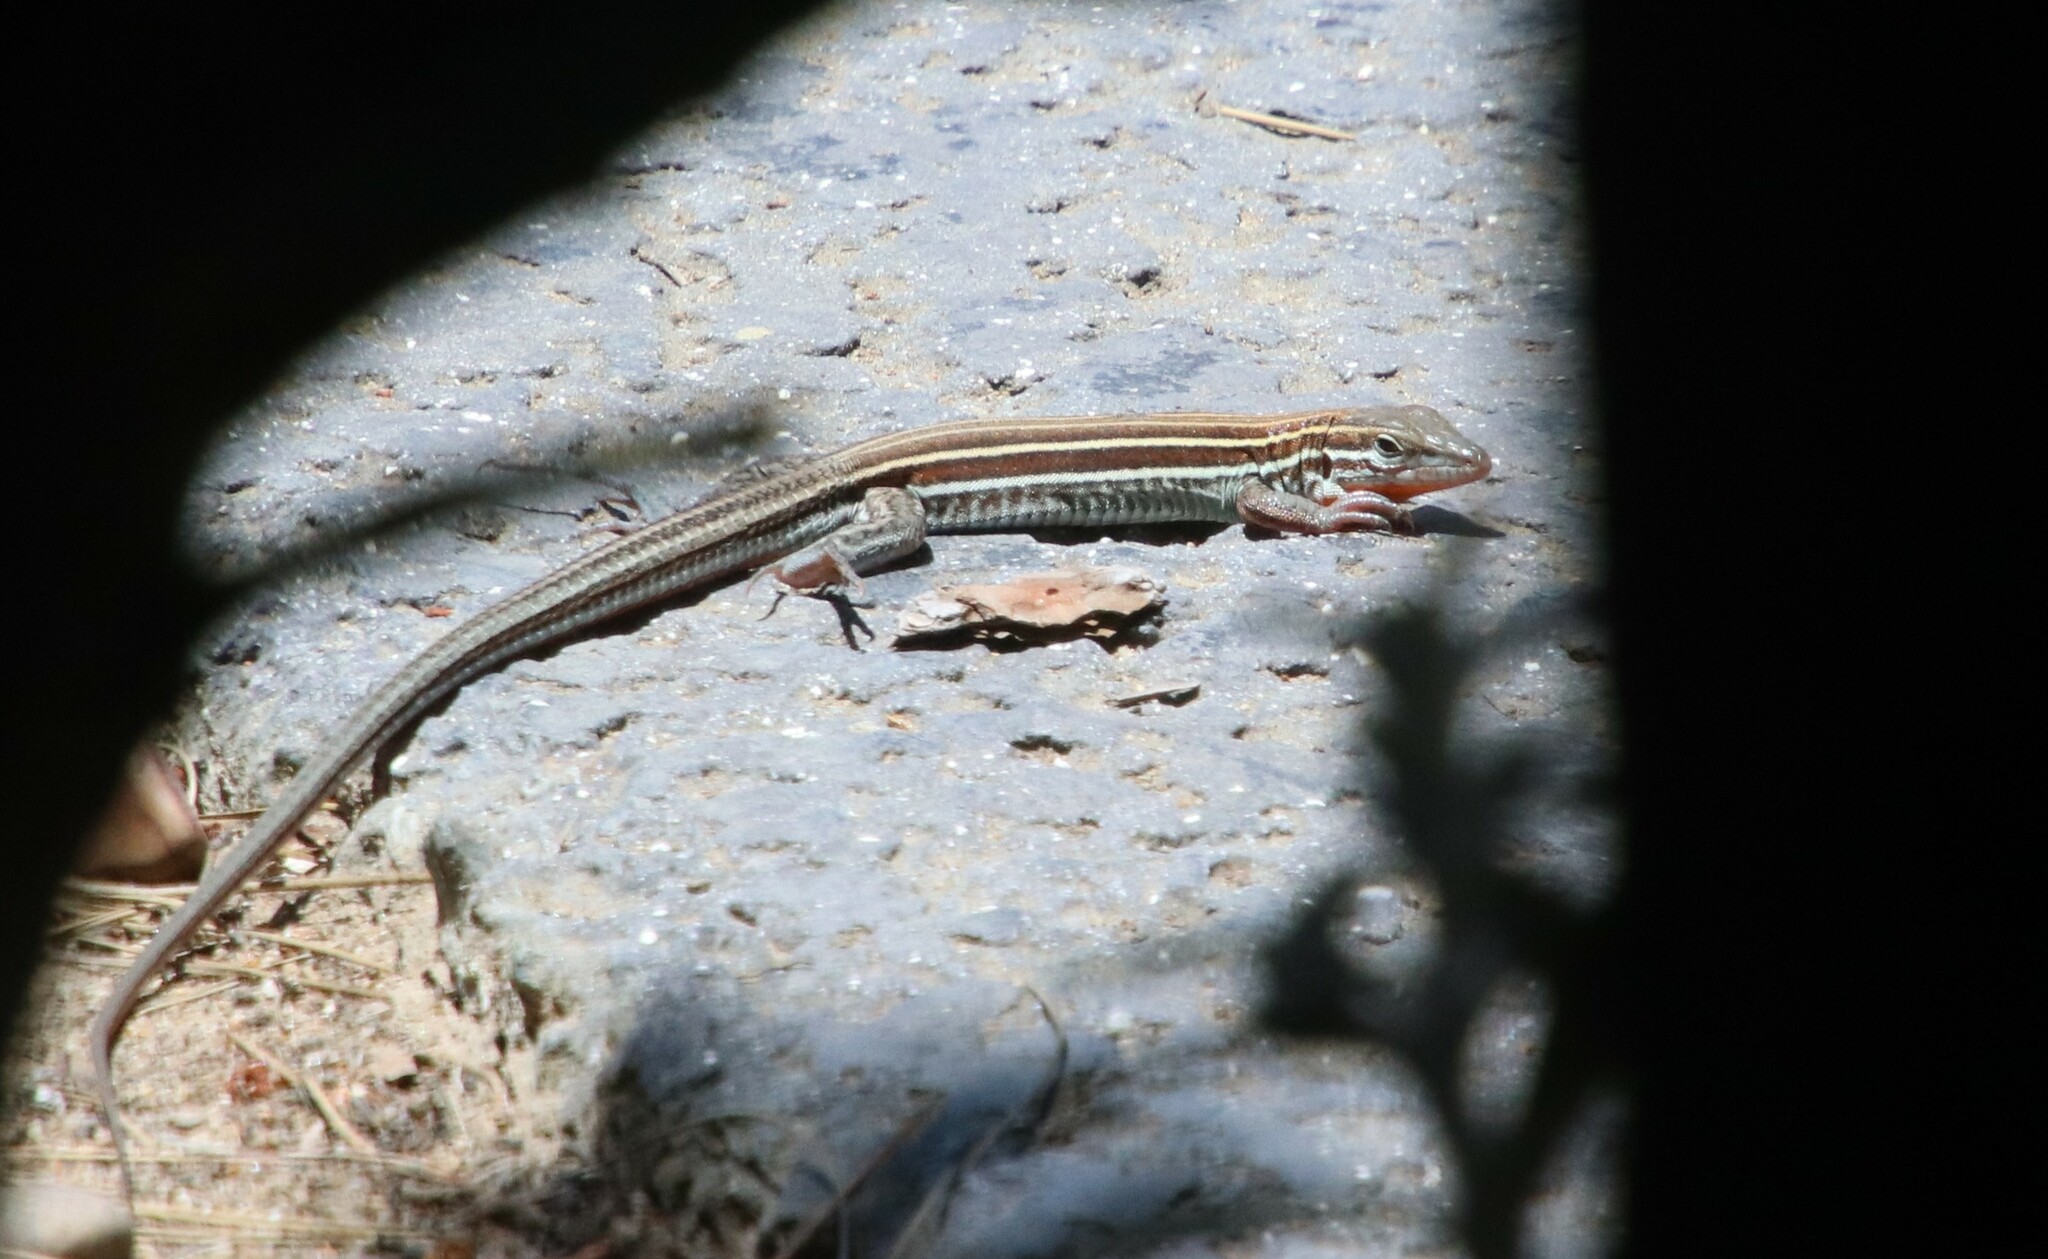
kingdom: Animalia
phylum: Chordata
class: Squamata
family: Teiidae
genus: Aspidoscelis
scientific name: Aspidoscelis hyperythrus
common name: Orange-throated race-runner
